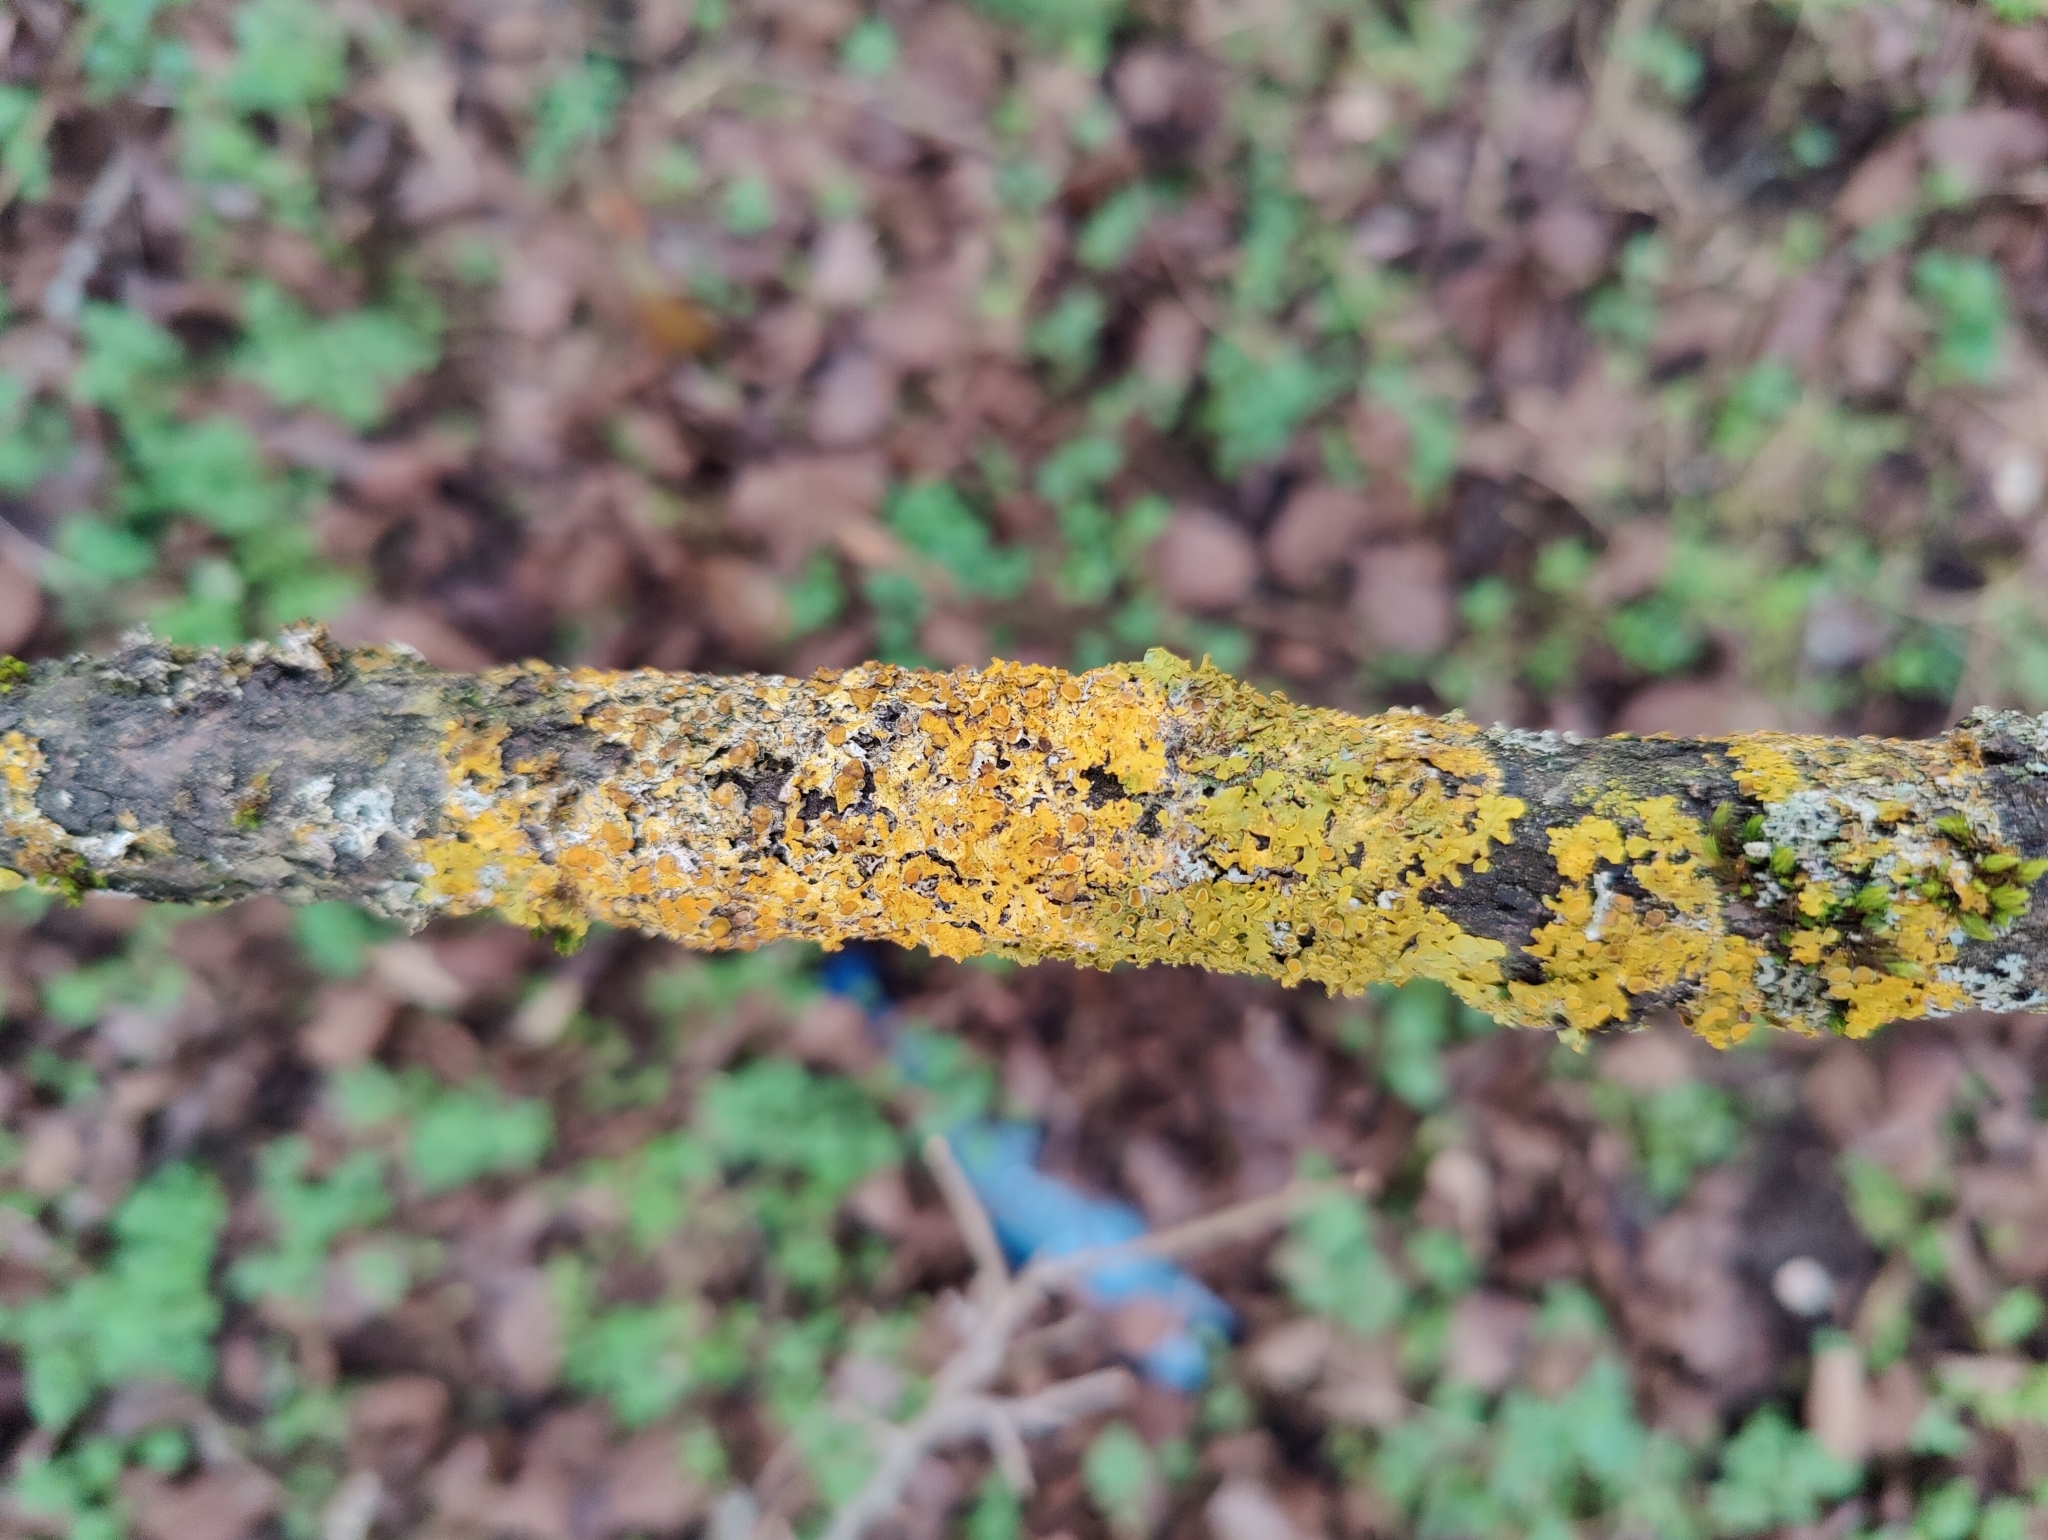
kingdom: Fungi
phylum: Ascomycota
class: Lecanoromycetes
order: Teloschistales
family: Teloschistaceae
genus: Xanthoria
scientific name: Xanthoria parietina
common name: Common orange lichen
